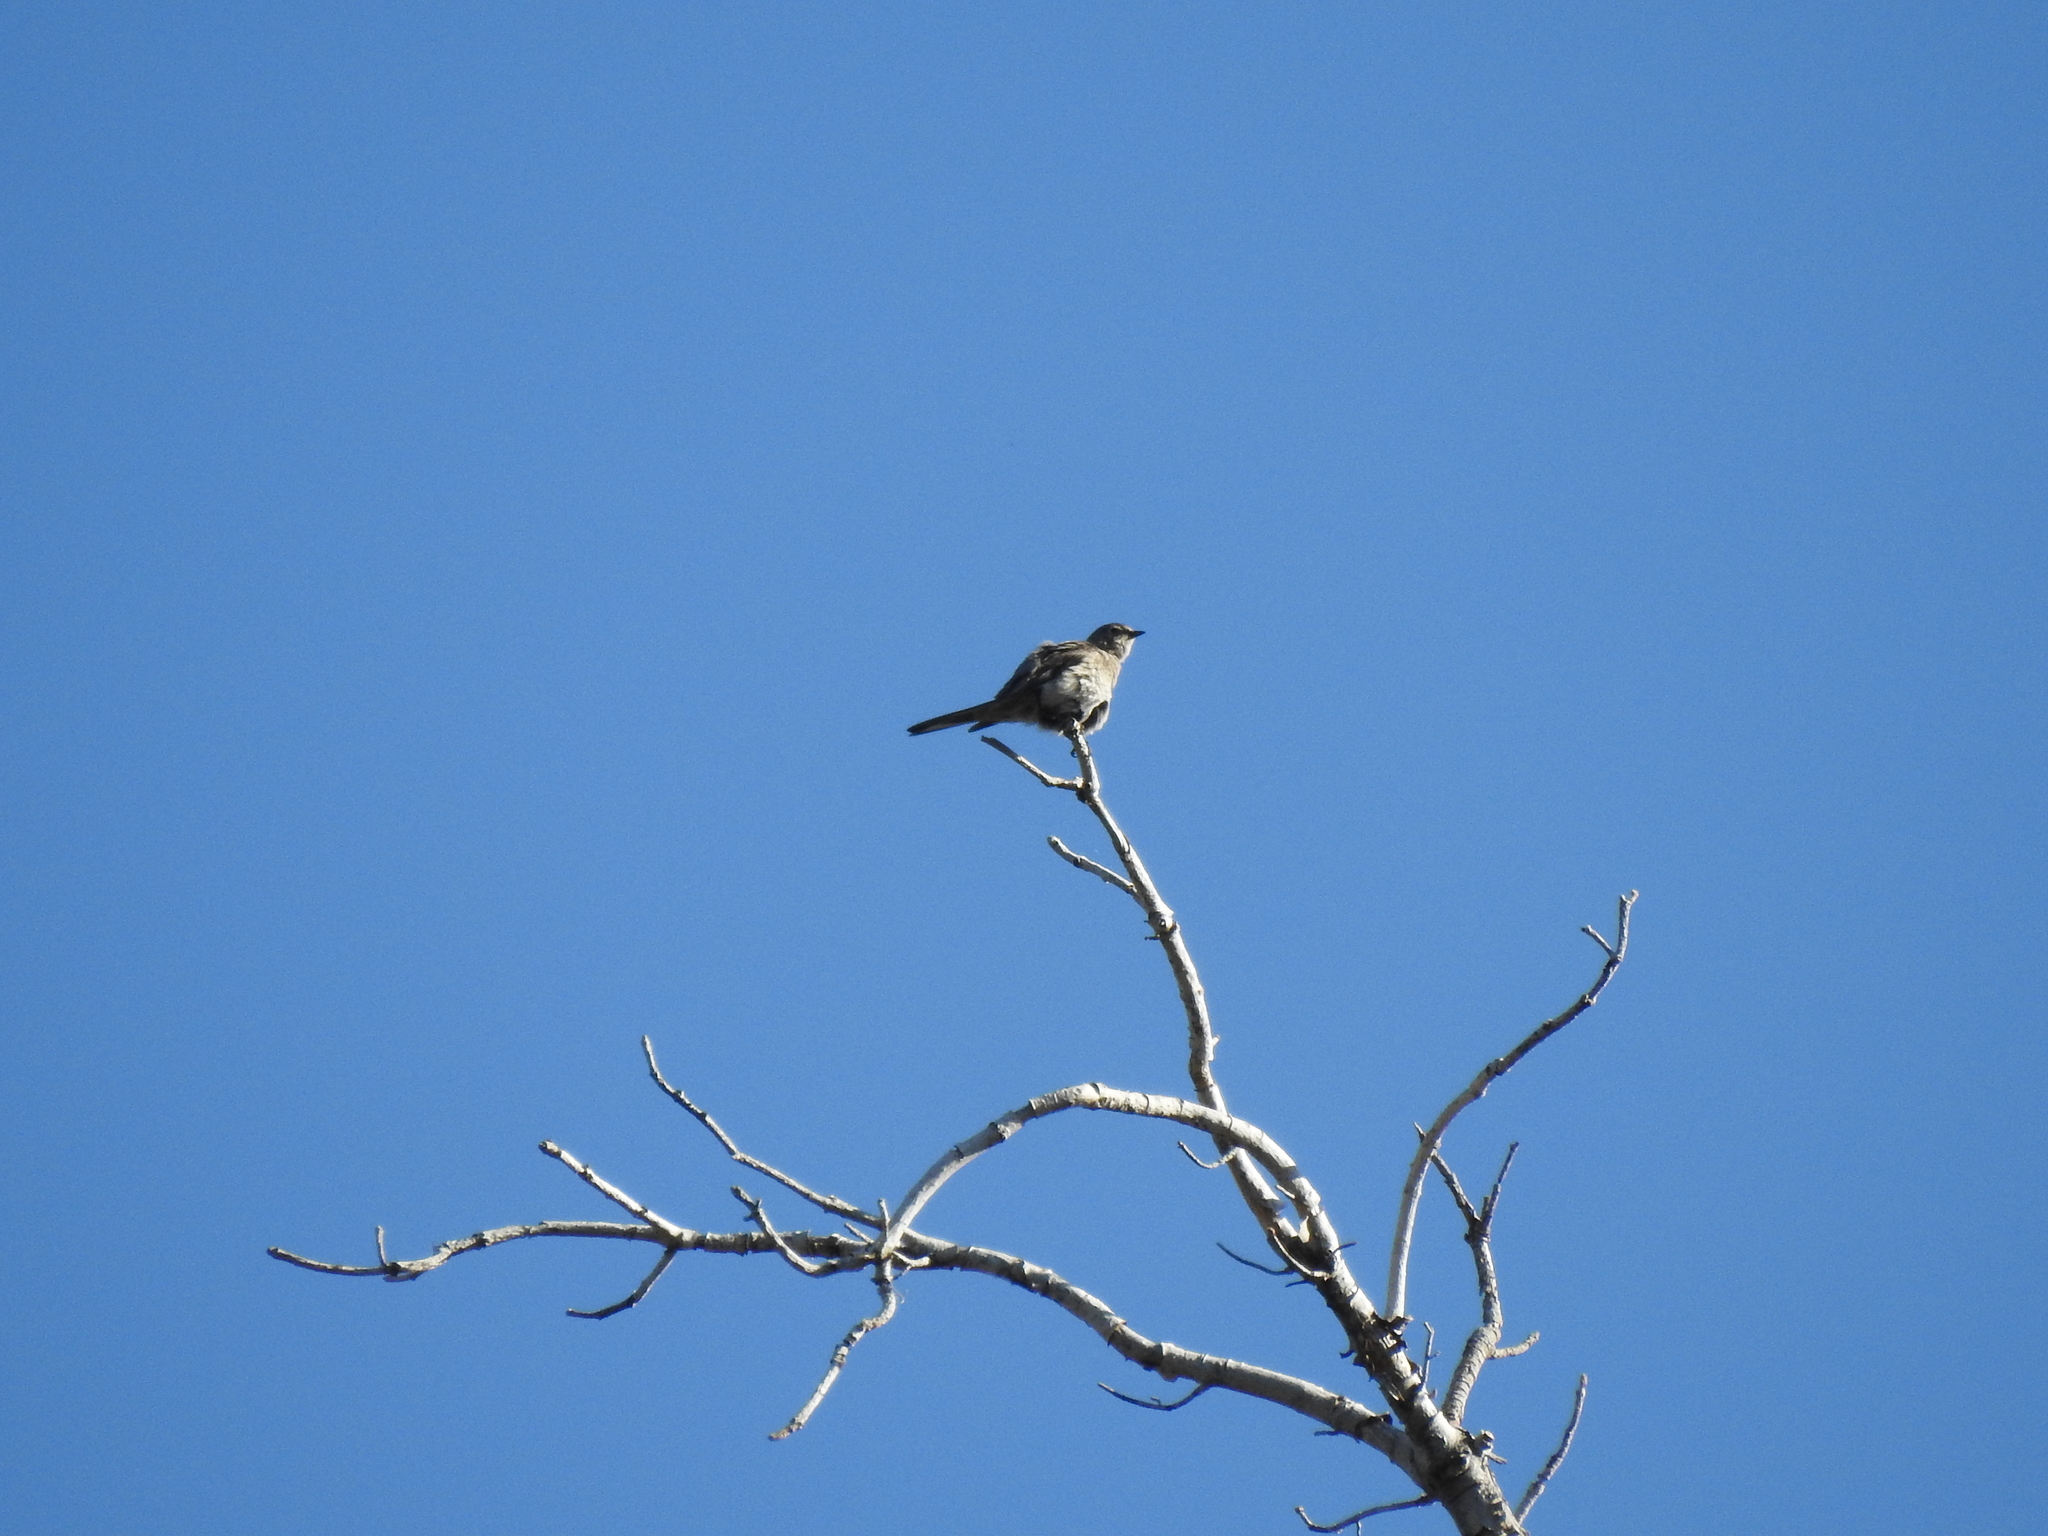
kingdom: Animalia
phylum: Chordata
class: Aves
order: Passeriformes
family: Turdidae
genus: Myadestes
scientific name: Myadestes townsendi
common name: Townsend's solitaire
